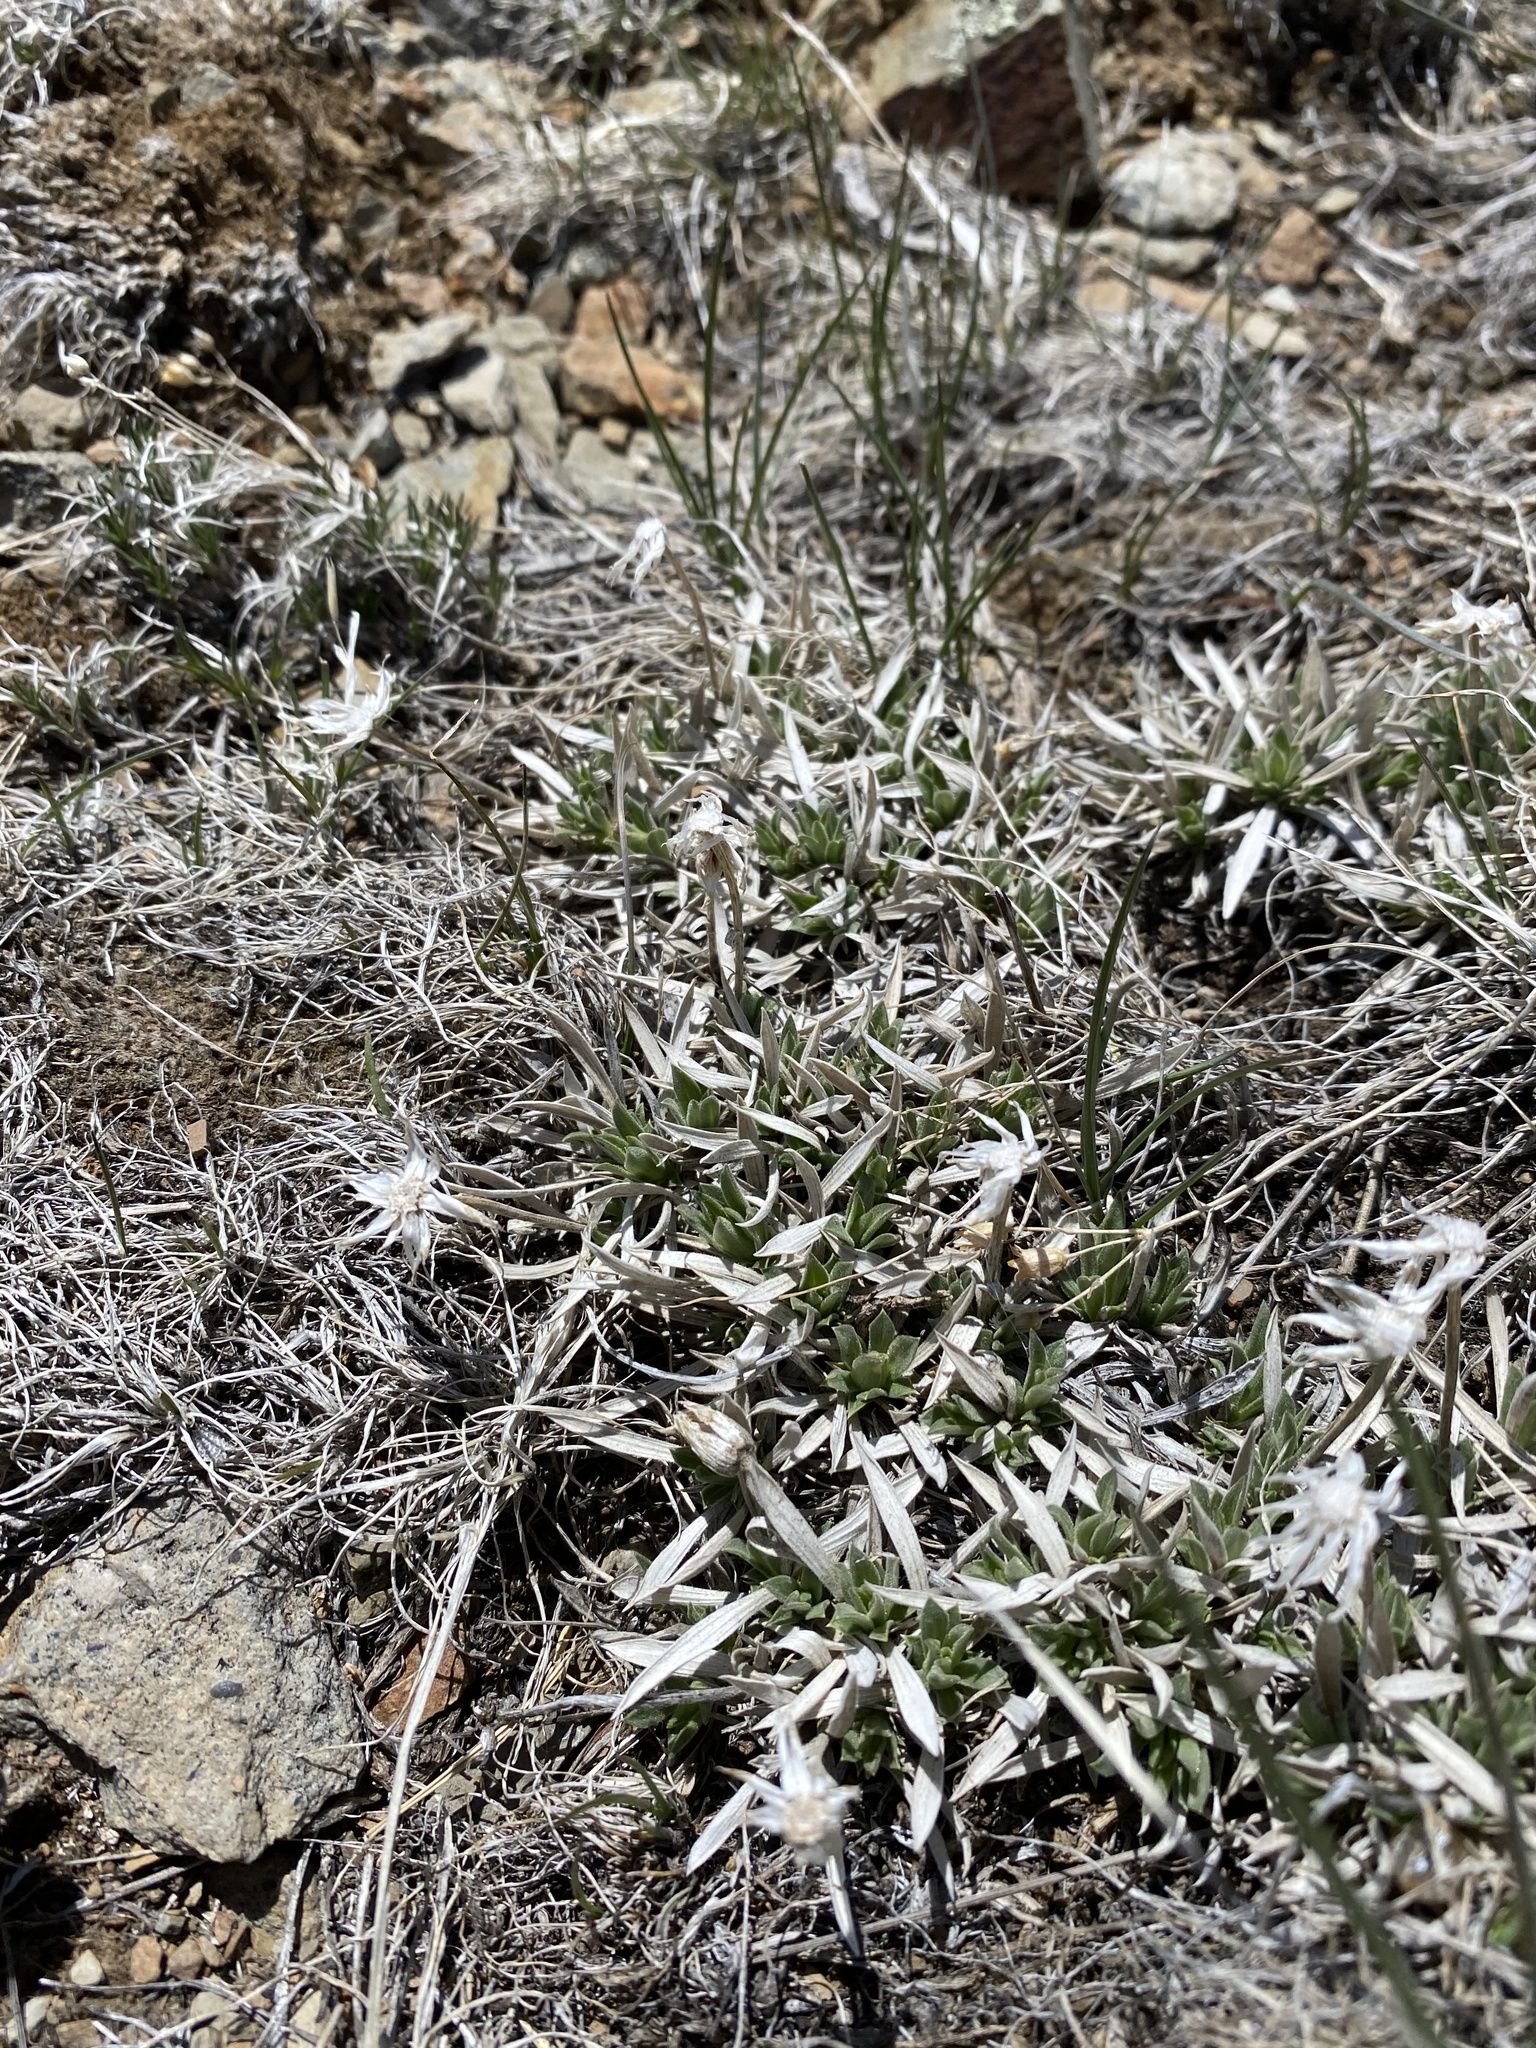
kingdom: Plantae
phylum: Tracheophyta
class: Magnoliopsida
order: Asterales
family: Asteraceae
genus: Stenotus
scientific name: Stenotus acaulis
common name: Stemless goldenweed
